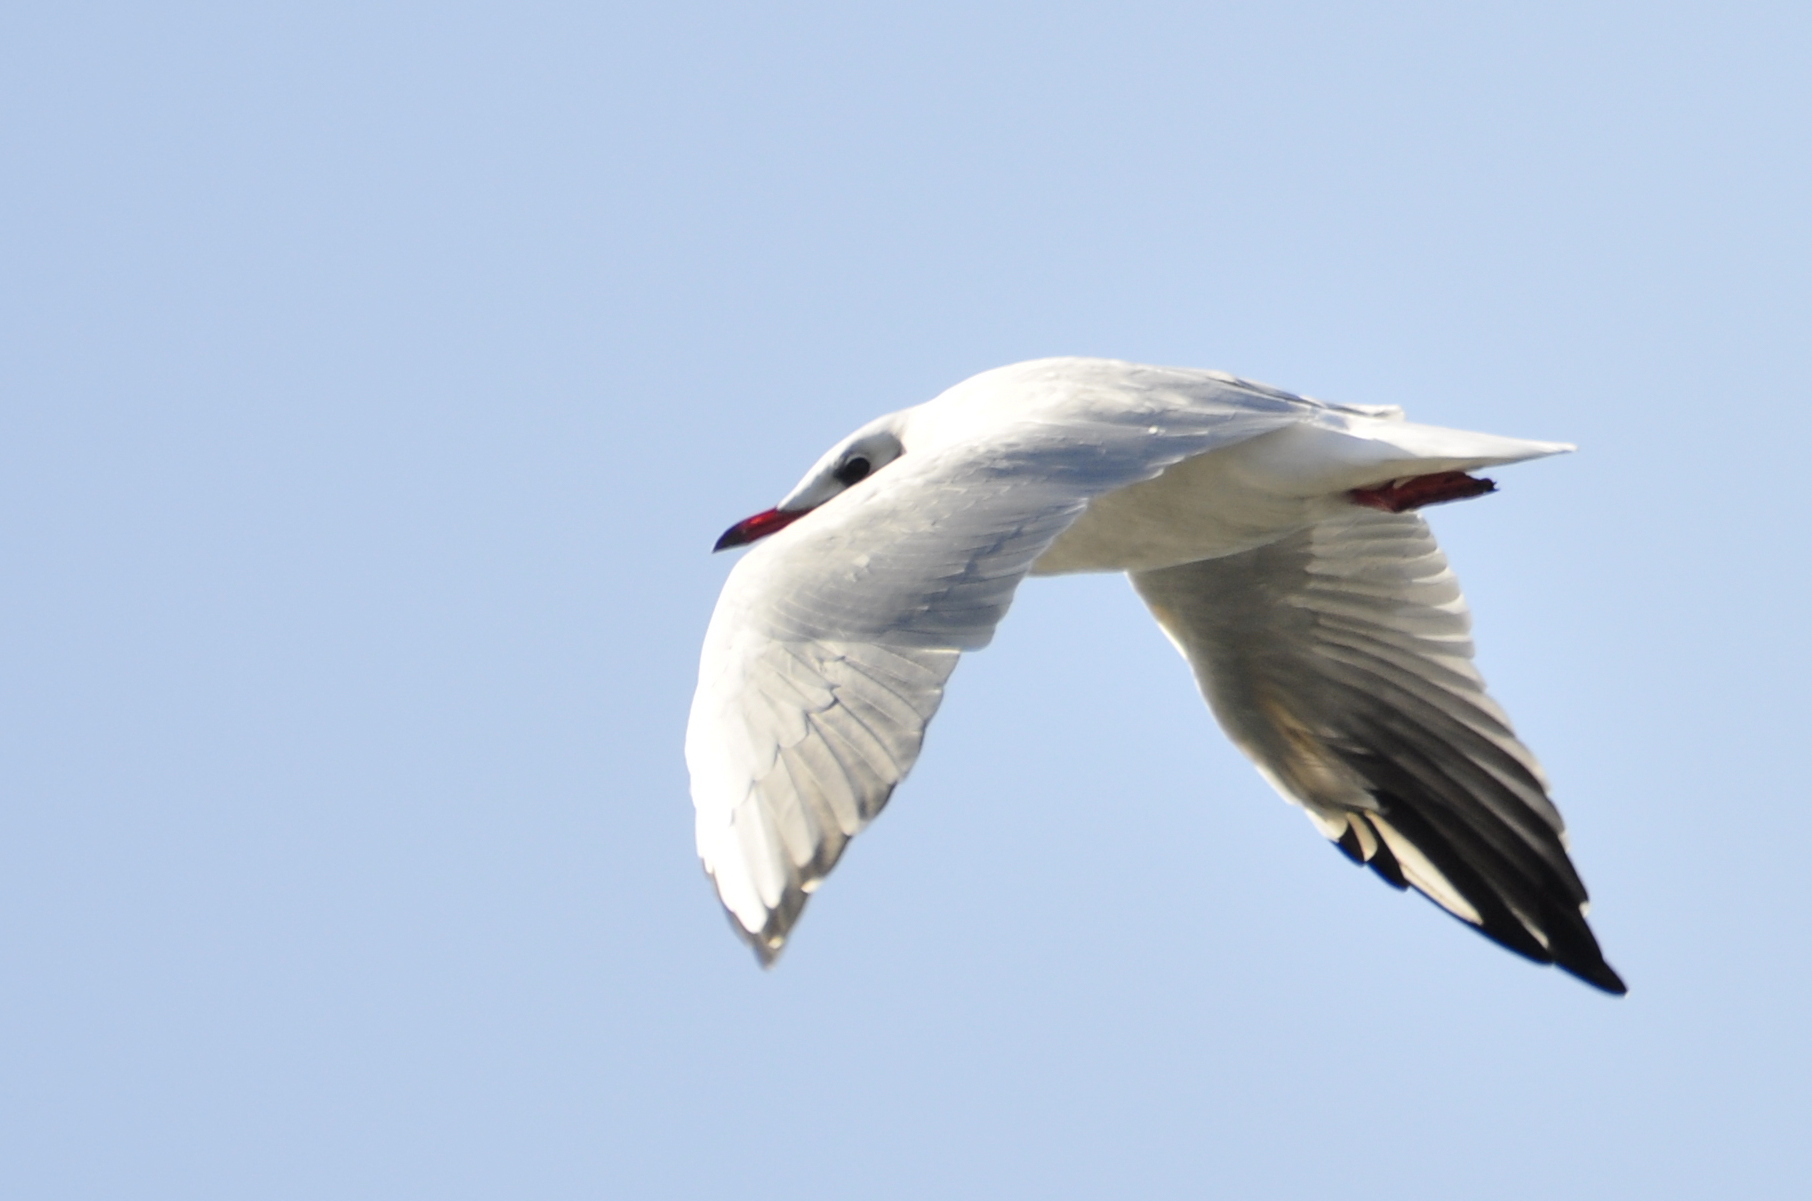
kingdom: Animalia
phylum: Chordata
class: Aves
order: Charadriiformes
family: Laridae
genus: Chroicocephalus
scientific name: Chroicocephalus ridibundus
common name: Black-headed gull
